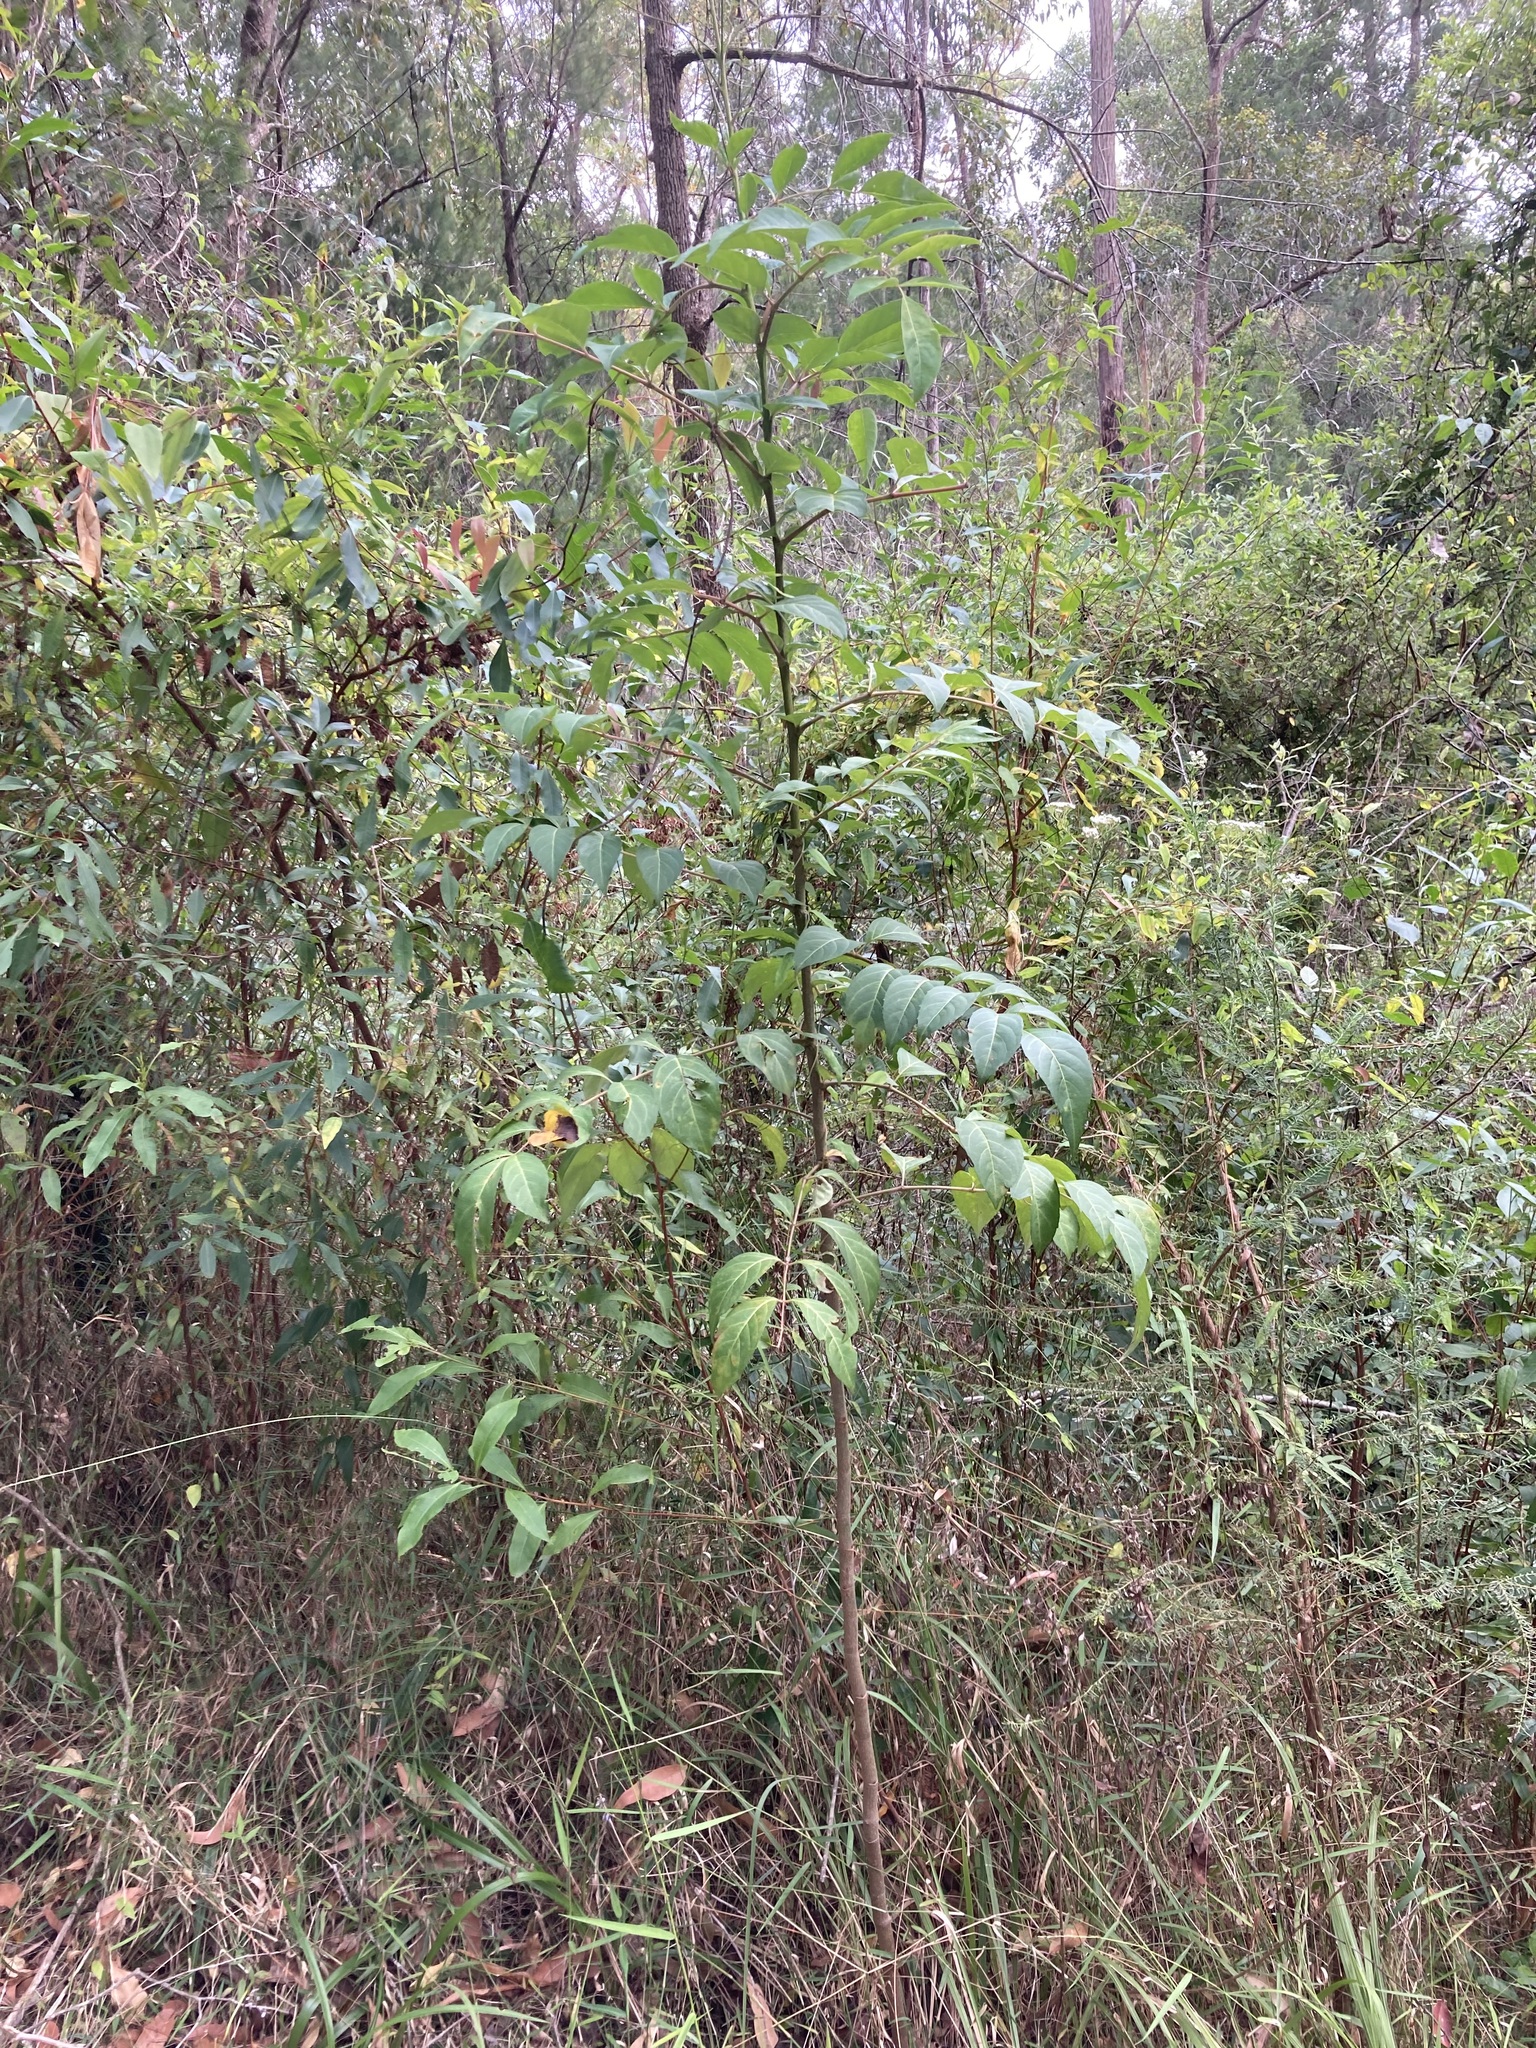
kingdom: Plantae
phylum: Tracheophyta
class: Magnoliopsida
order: Apiales
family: Araliaceae
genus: Polyscias
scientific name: Polyscias sambucifolia
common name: Elderberry-ash
